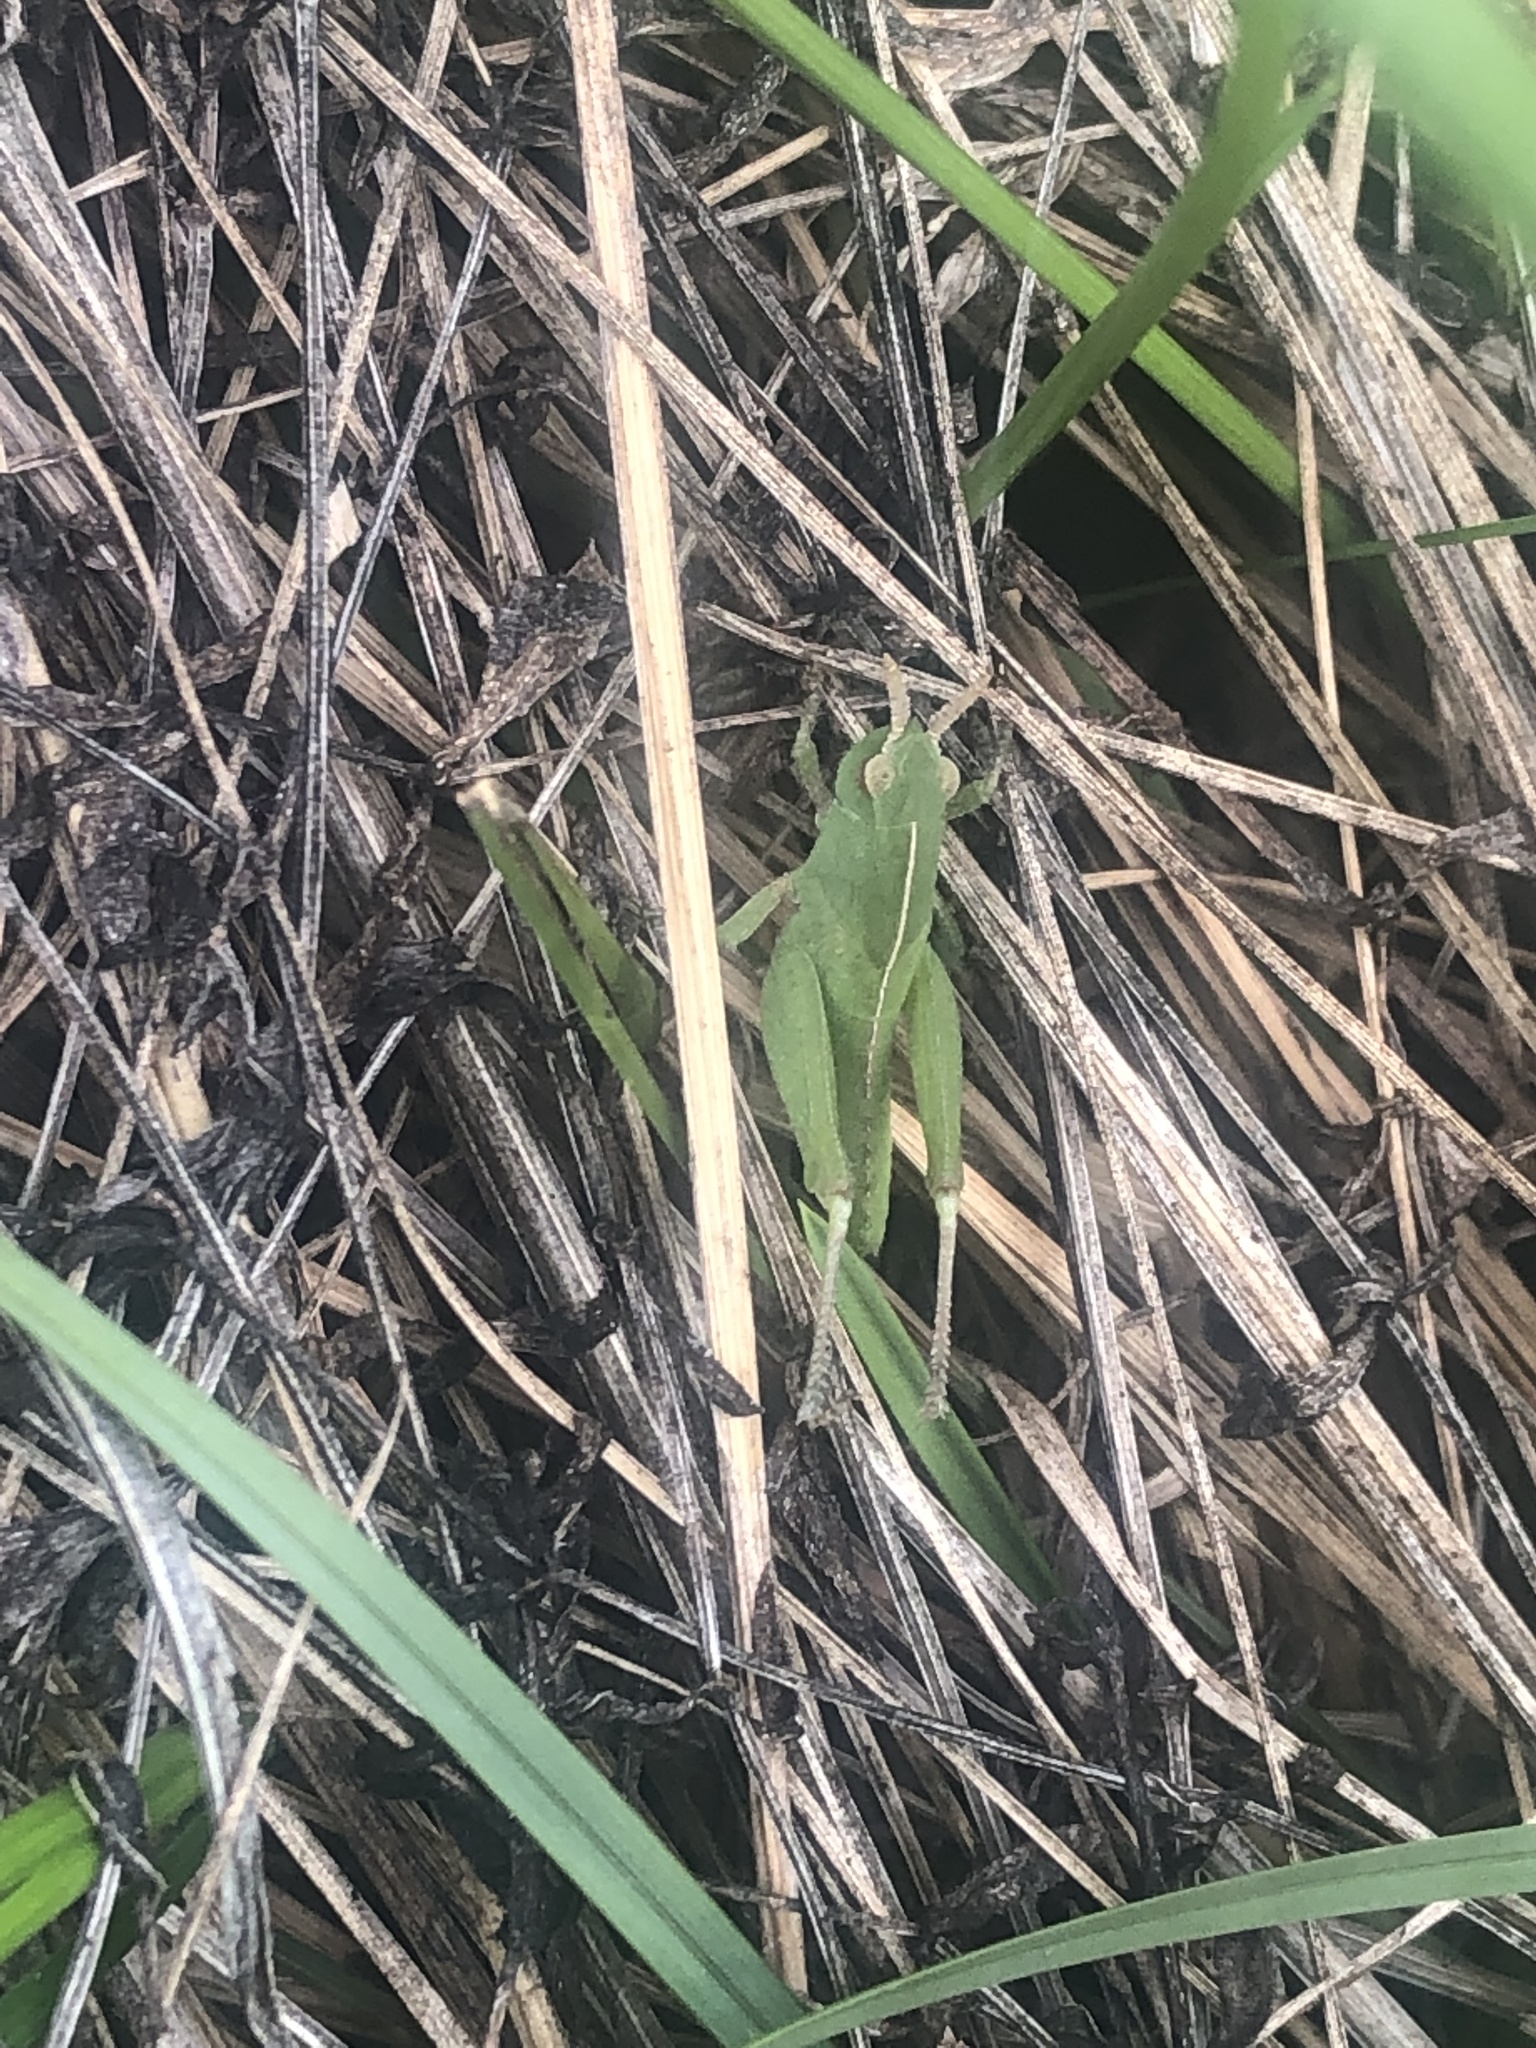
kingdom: Animalia
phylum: Arthropoda
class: Insecta
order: Orthoptera
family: Acrididae
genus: Chortophaga
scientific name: Chortophaga viridifasciata
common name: Green-striped grasshopper
